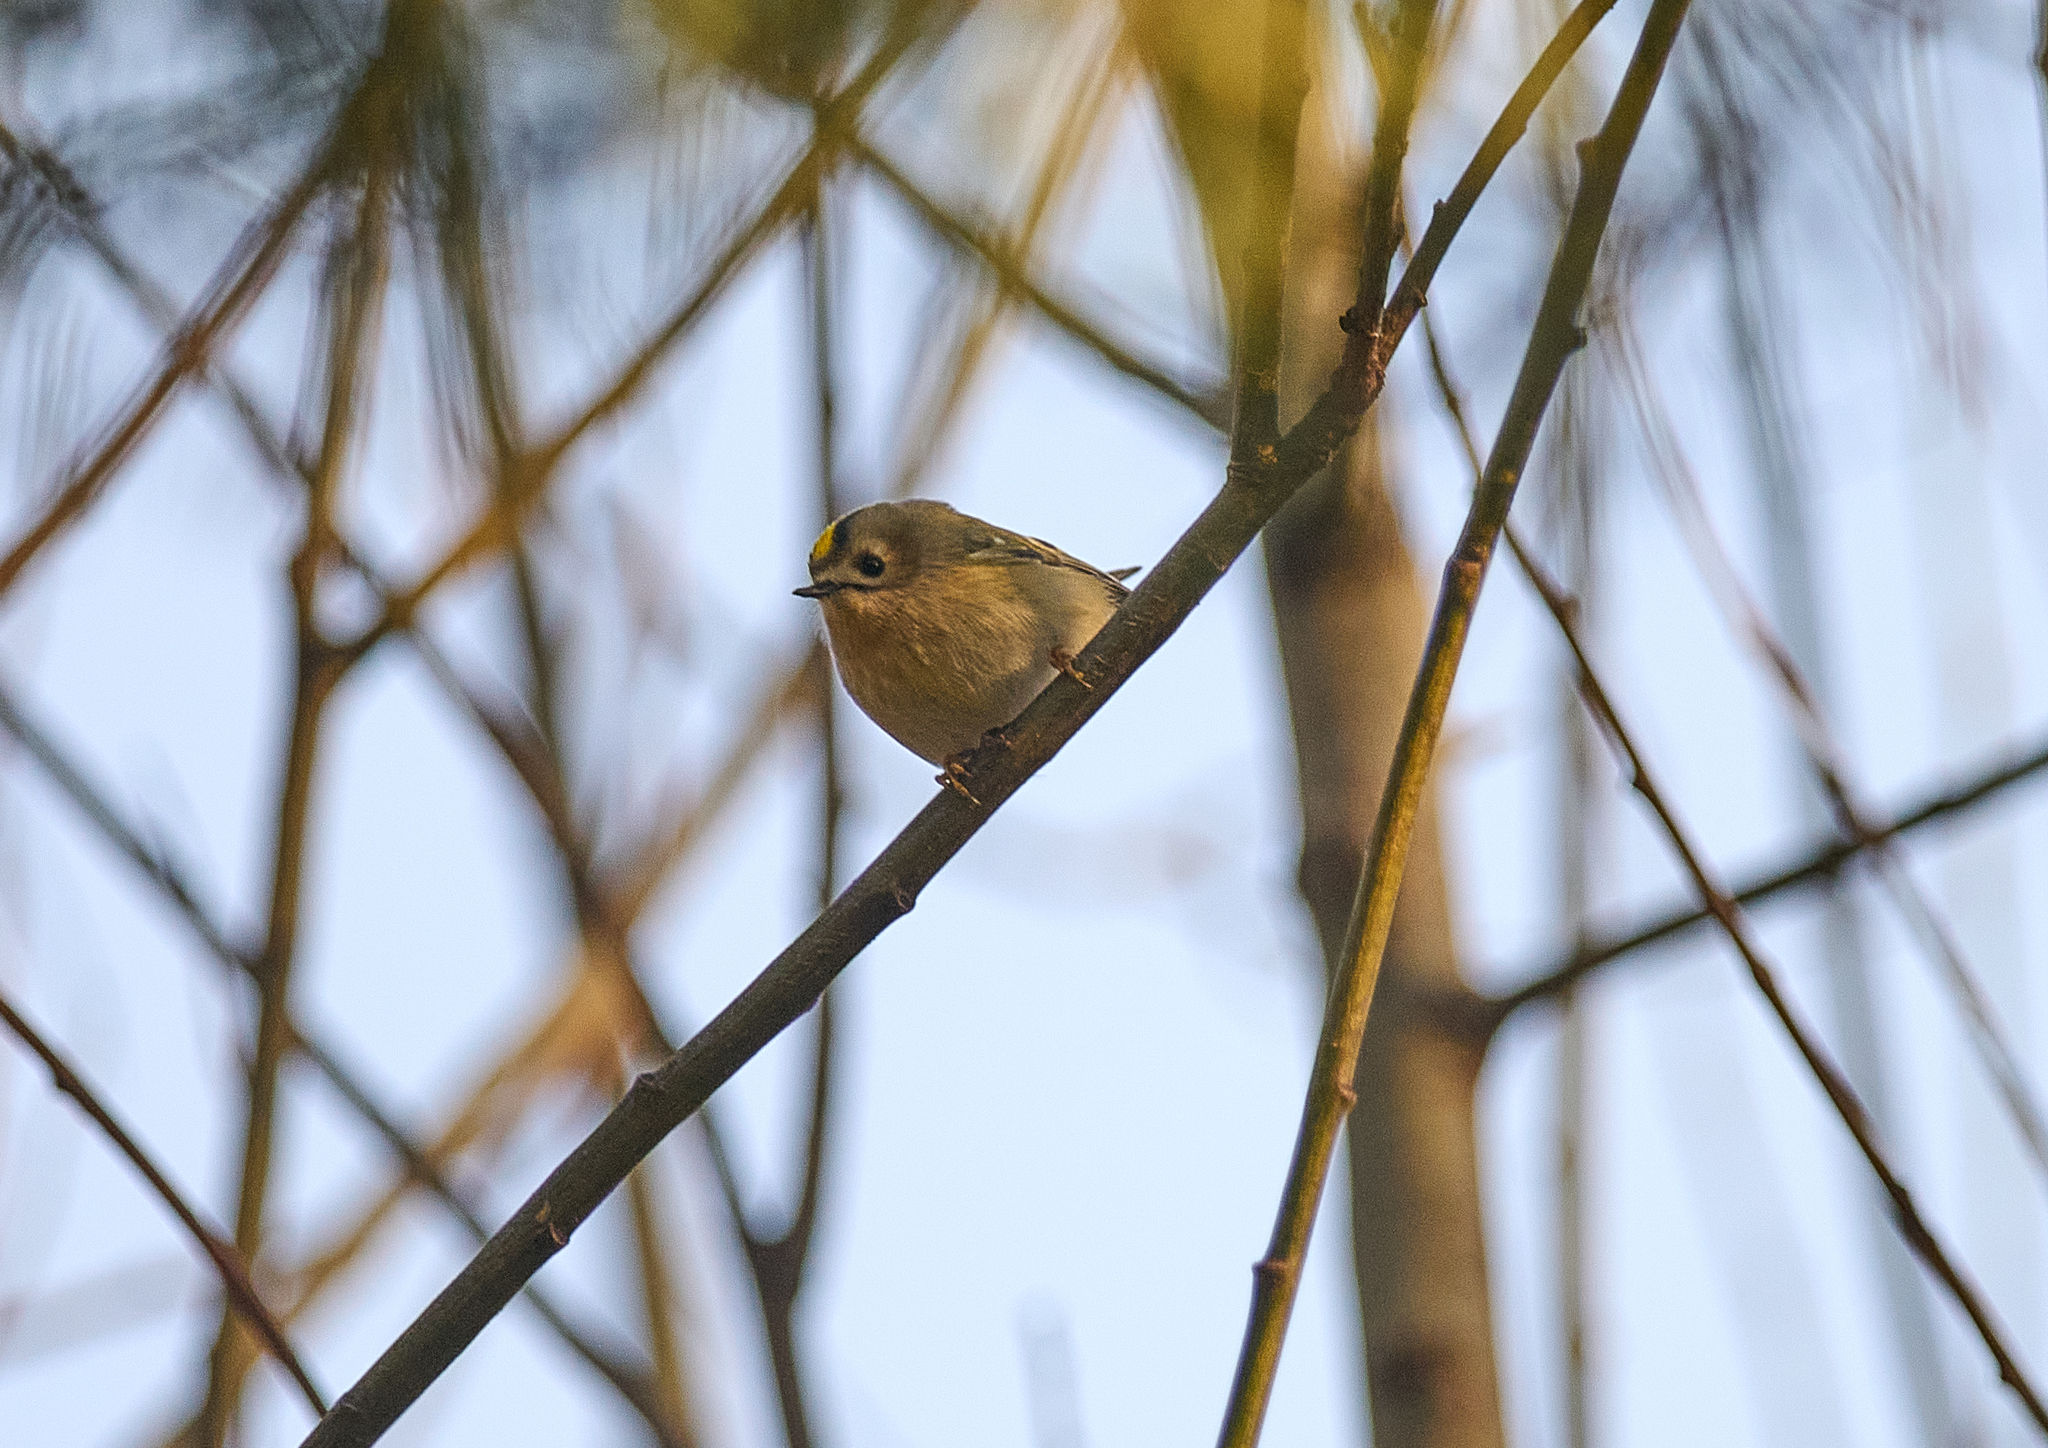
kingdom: Animalia
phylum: Chordata
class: Aves
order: Passeriformes
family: Regulidae
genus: Regulus
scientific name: Regulus regulus
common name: Goldcrest
